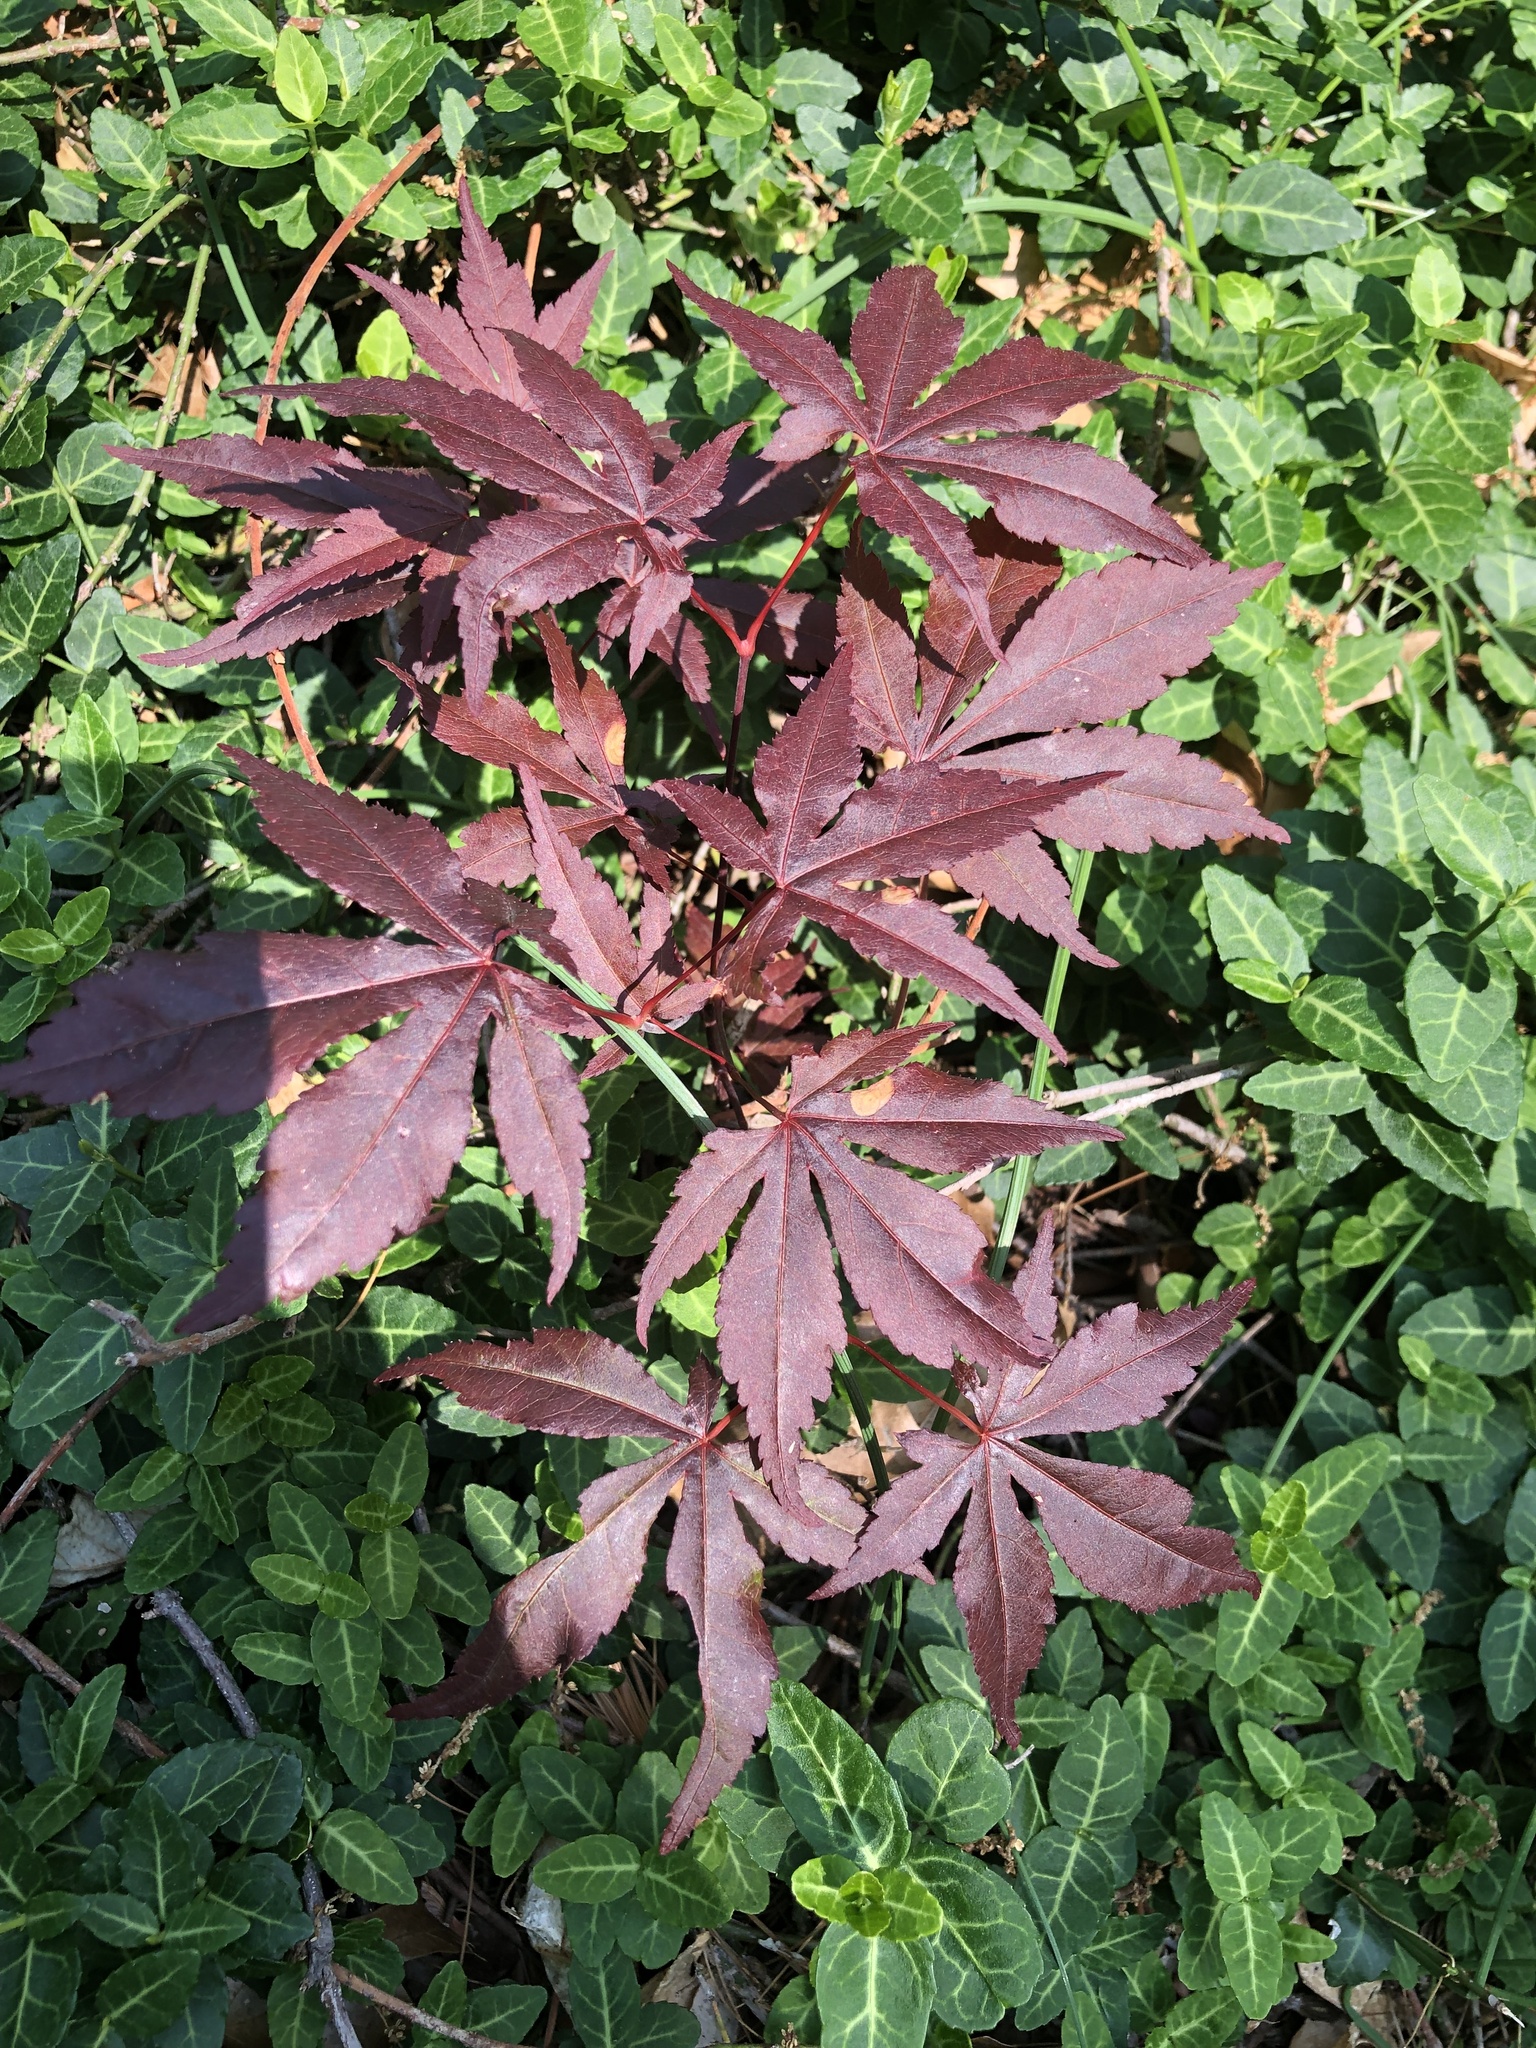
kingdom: Plantae
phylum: Tracheophyta
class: Magnoliopsida
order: Sapindales
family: Sapindaceae
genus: Acer
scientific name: Acer palmatum
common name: Japanese maple
